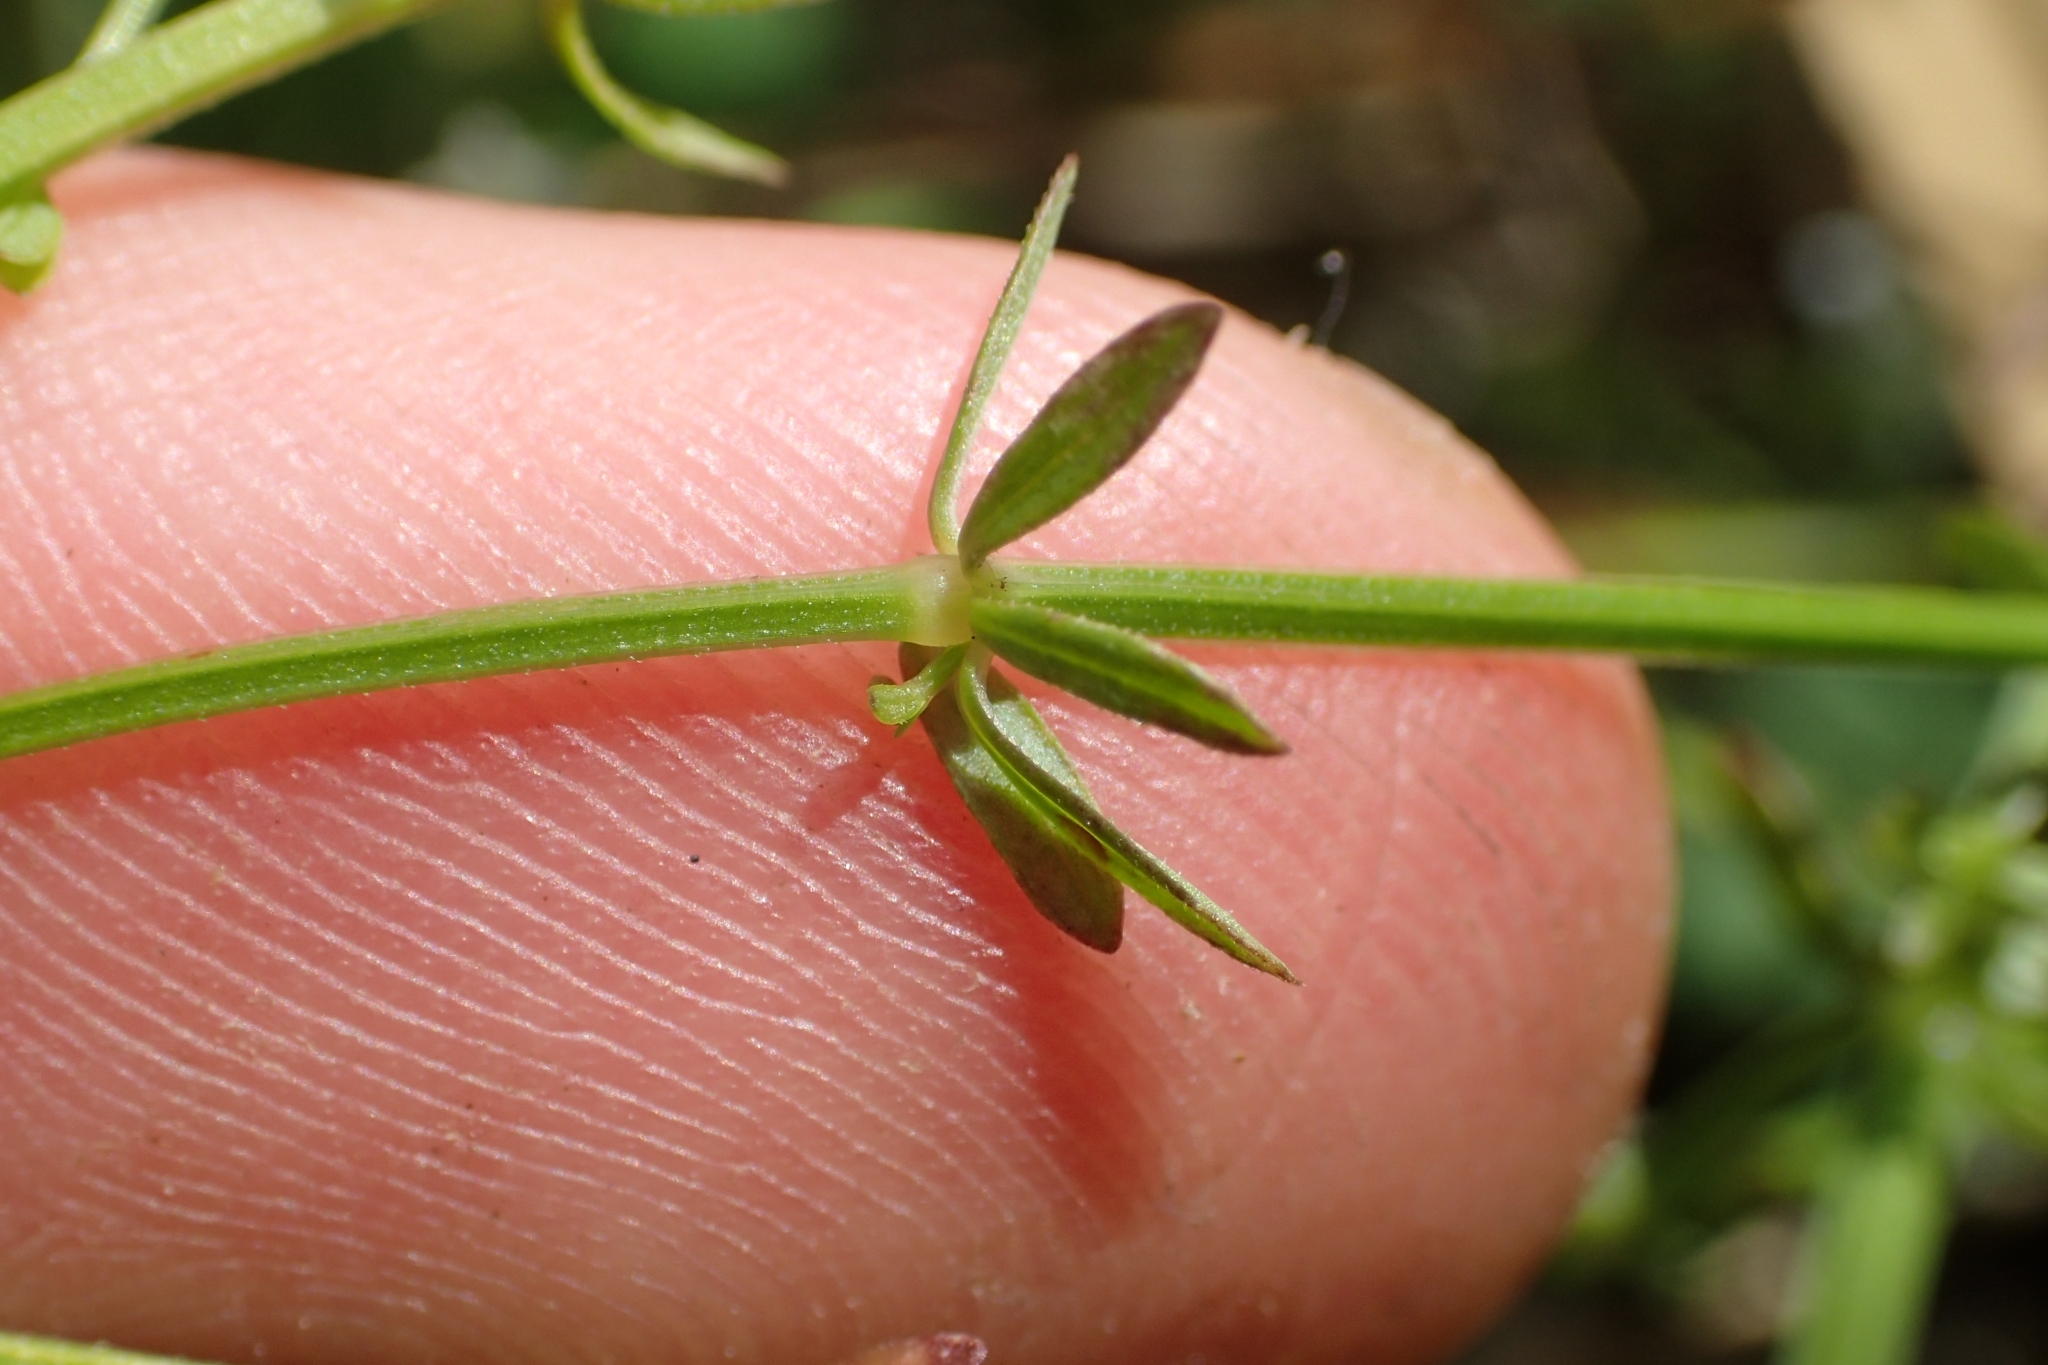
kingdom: Plantae
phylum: Tracheophyta
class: Magnoliopsida
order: Gentianales
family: Rubiaceae
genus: Galium
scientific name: Galium palustre
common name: Common marsh-bedstraw
